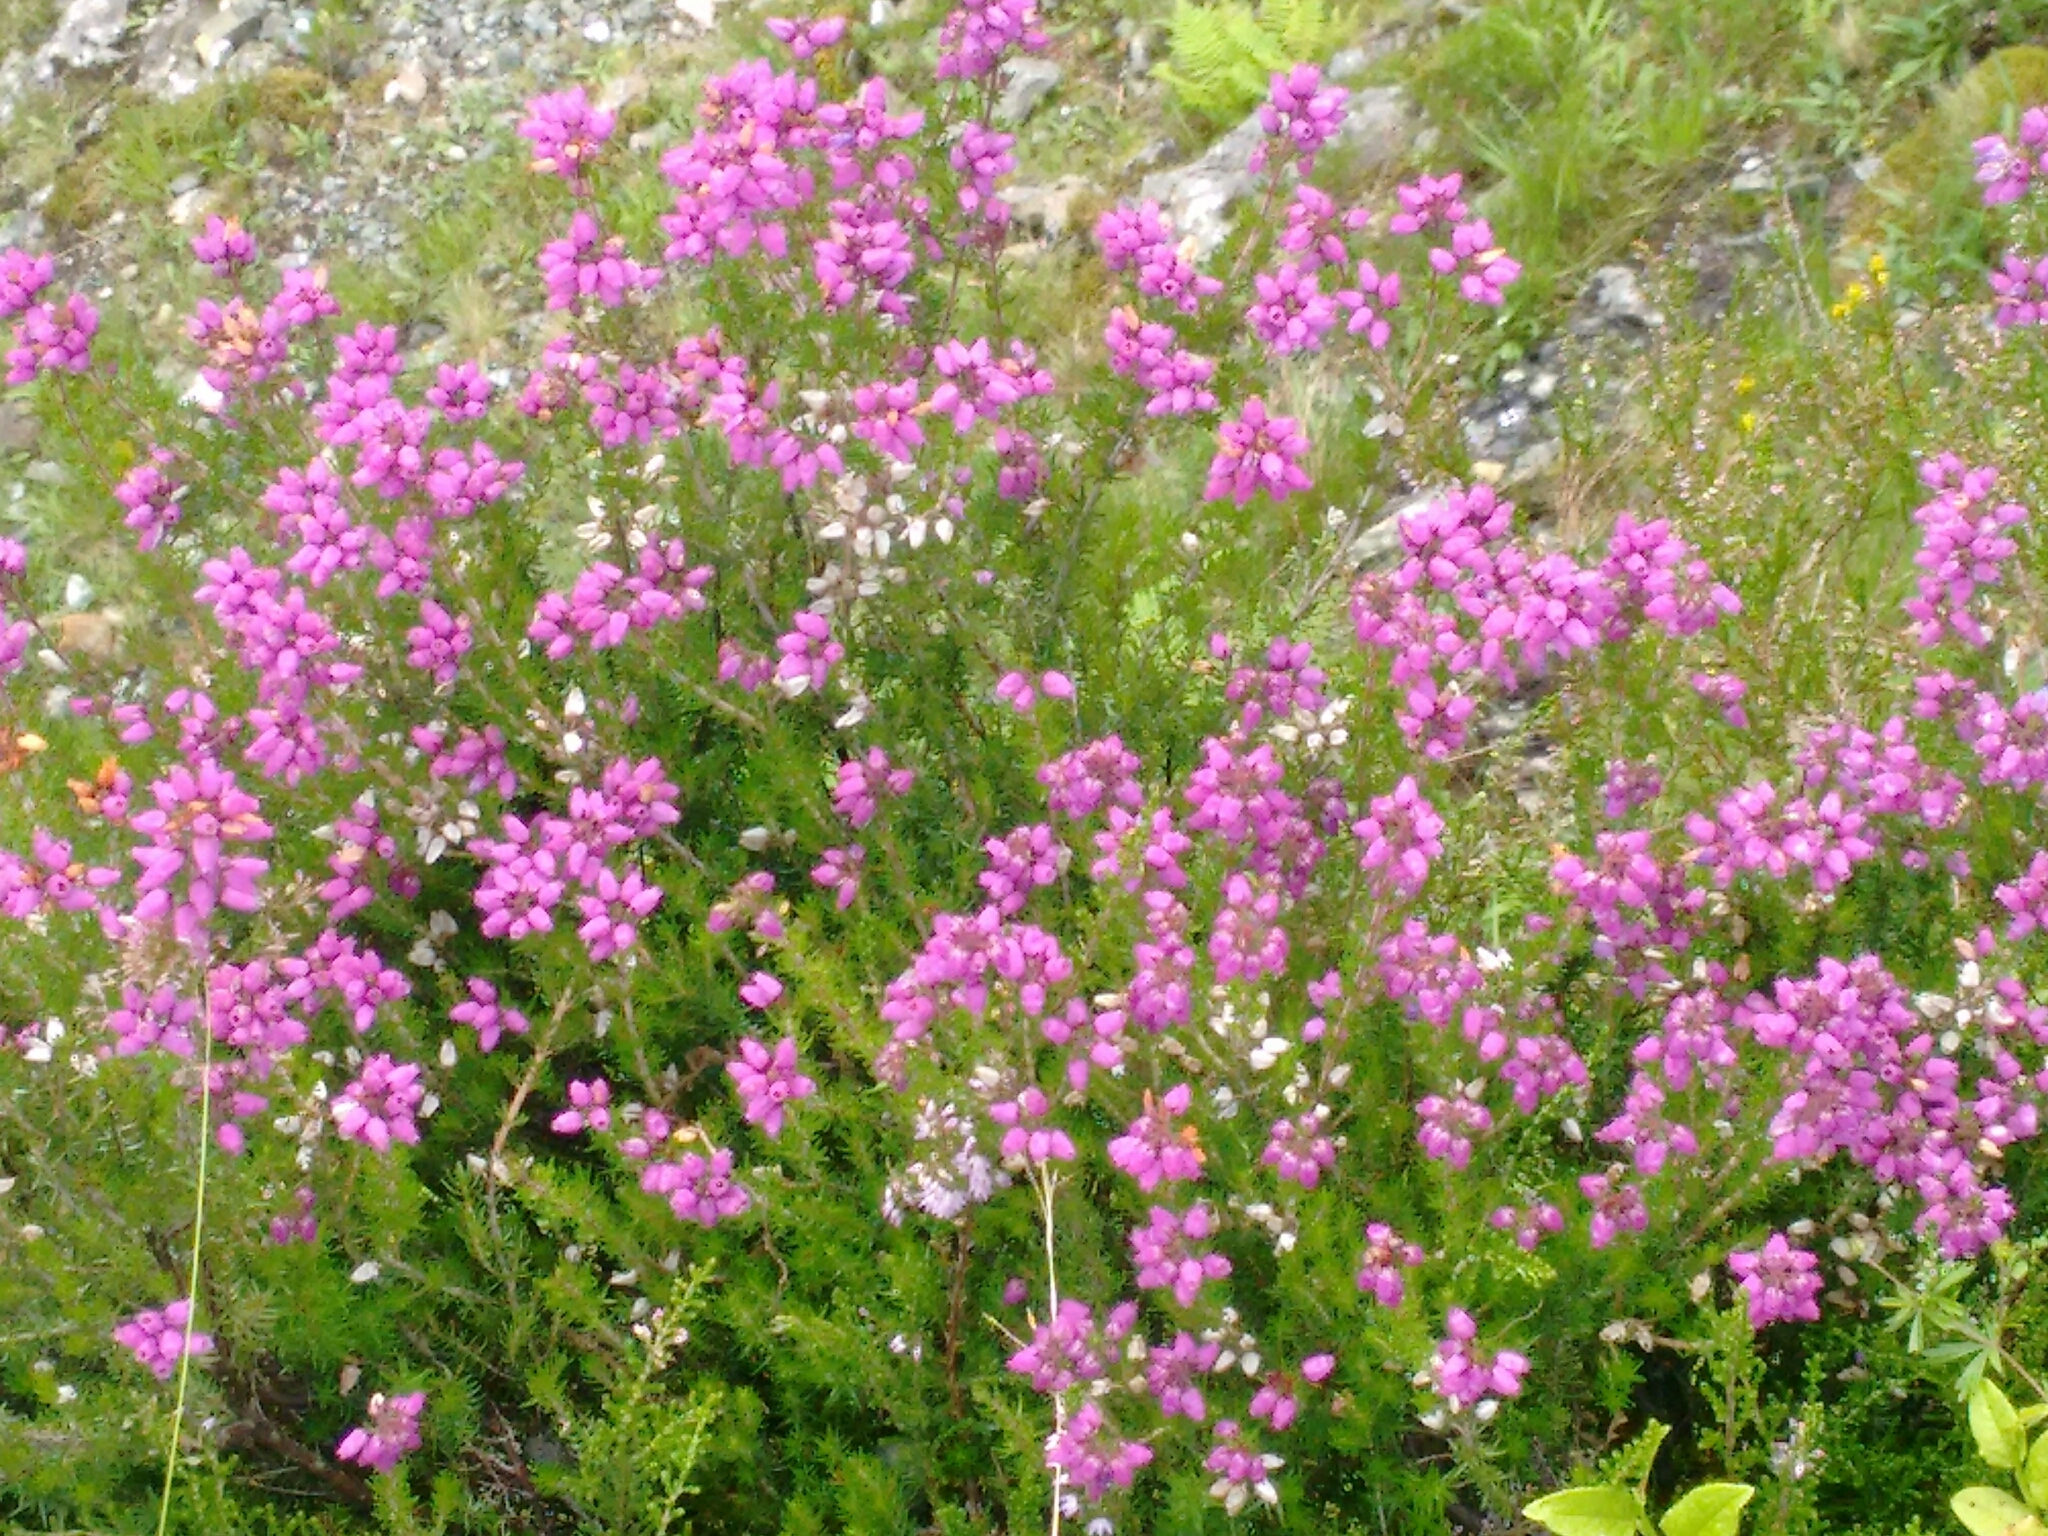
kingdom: Plantae
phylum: Tracheophyta
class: Magnoliopsida
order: Ericales
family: Ericaceae
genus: Erica
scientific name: Erica cinerea
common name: Bell heather
